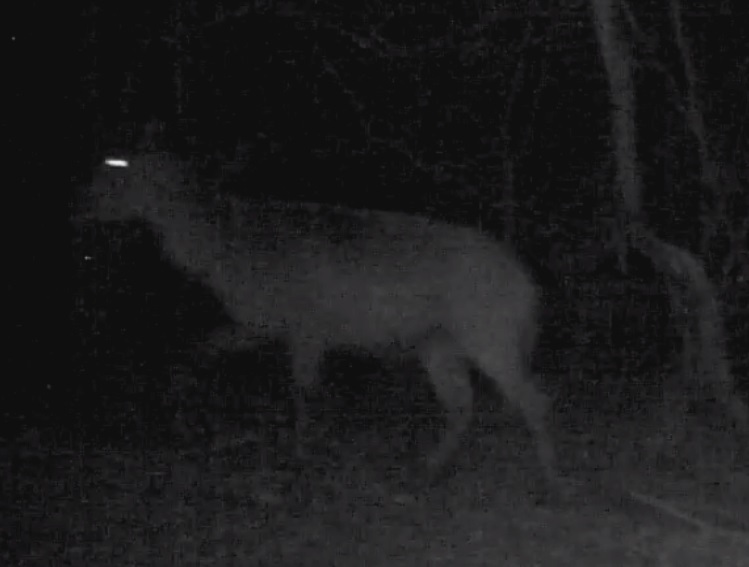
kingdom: Animalia
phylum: Chordata
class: Mammalia
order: Artiodactyla
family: Bovidae
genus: Kobus
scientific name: Kobus ellipsiprymnus
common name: Waterbuck
